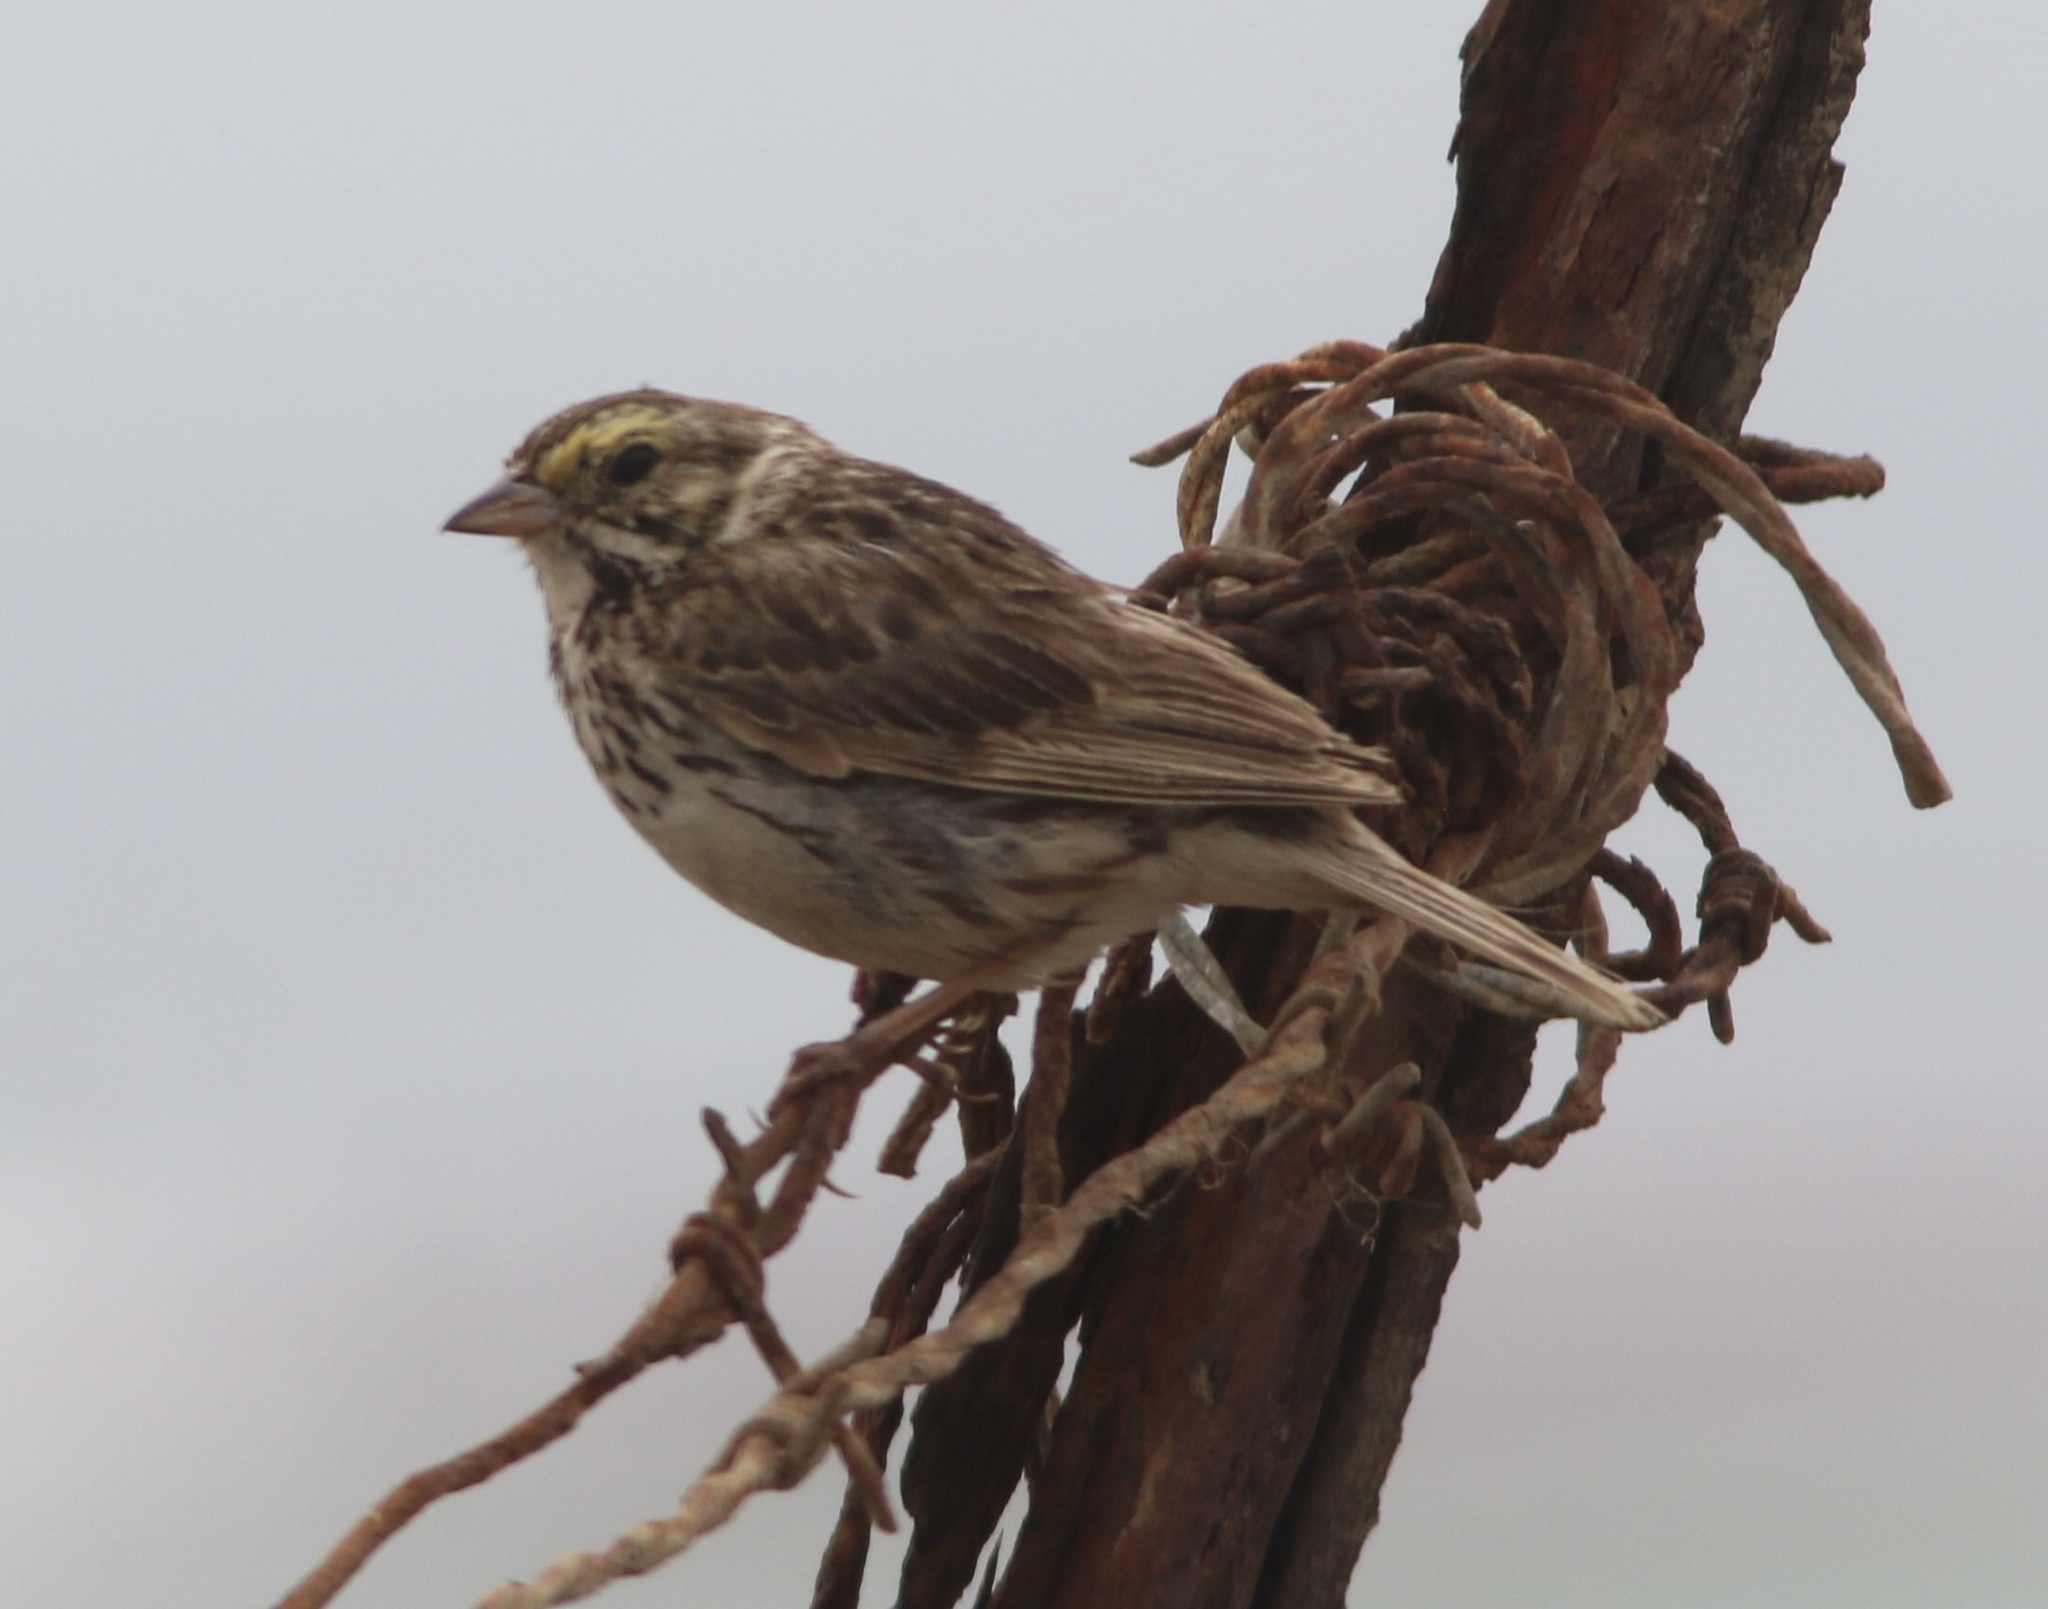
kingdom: Animalia
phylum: Chordata
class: Aves
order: Passeriformes
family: Passerellidae
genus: Passerculus
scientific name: Passerculus sandwichensis
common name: Savannah sparrow
